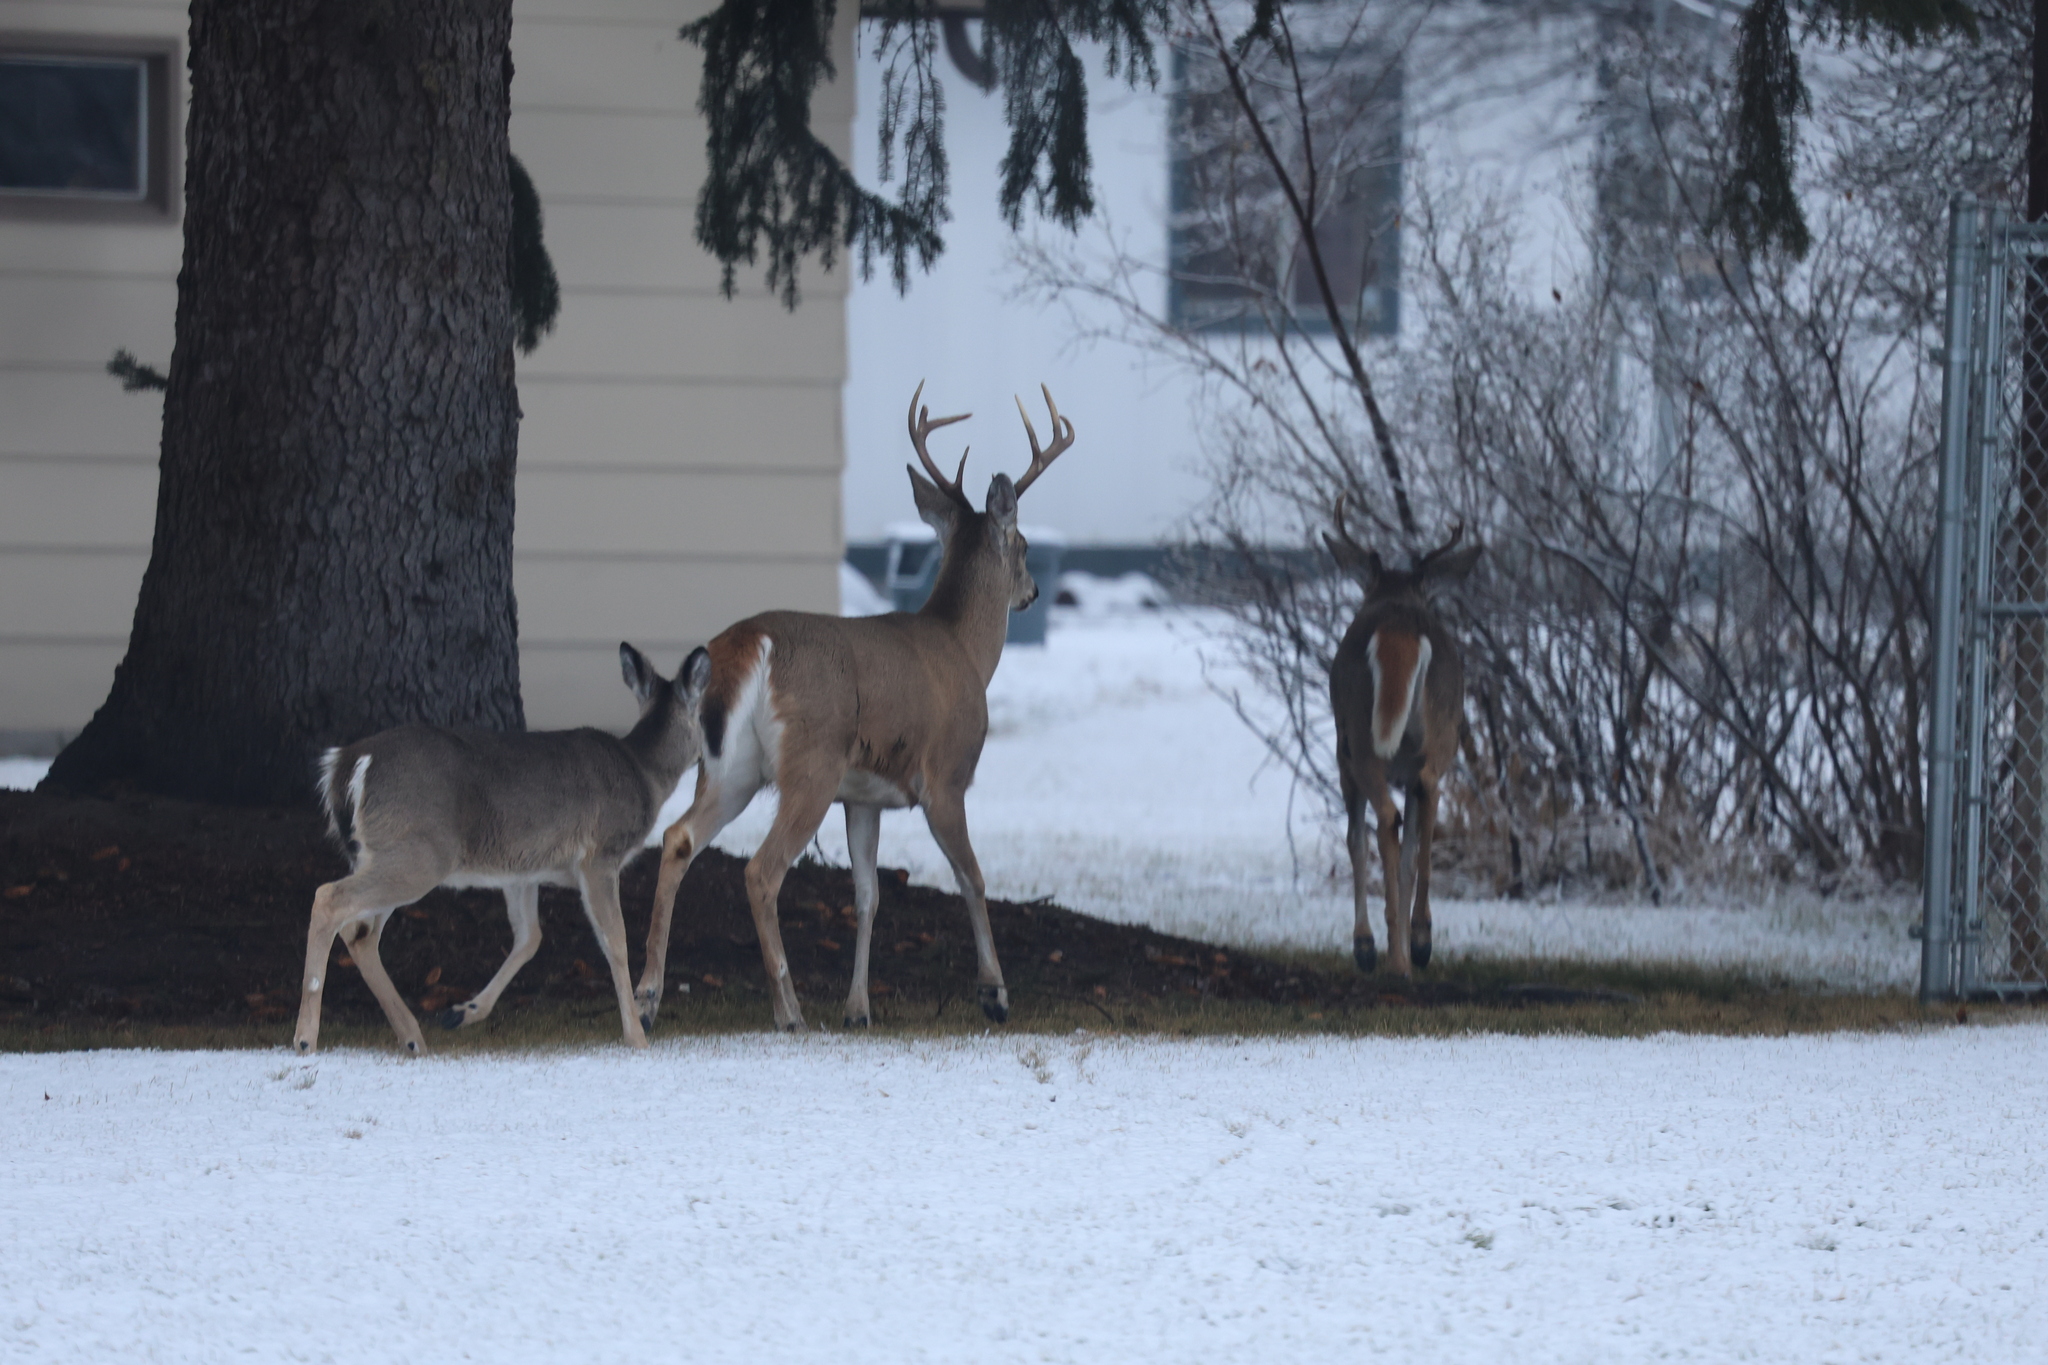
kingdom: Animalia
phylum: Chordata
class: Mammalia
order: Artiodactyla
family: Cervidae
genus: Odocoileus
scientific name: Odocoileus virginianus
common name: White-tailed deer
